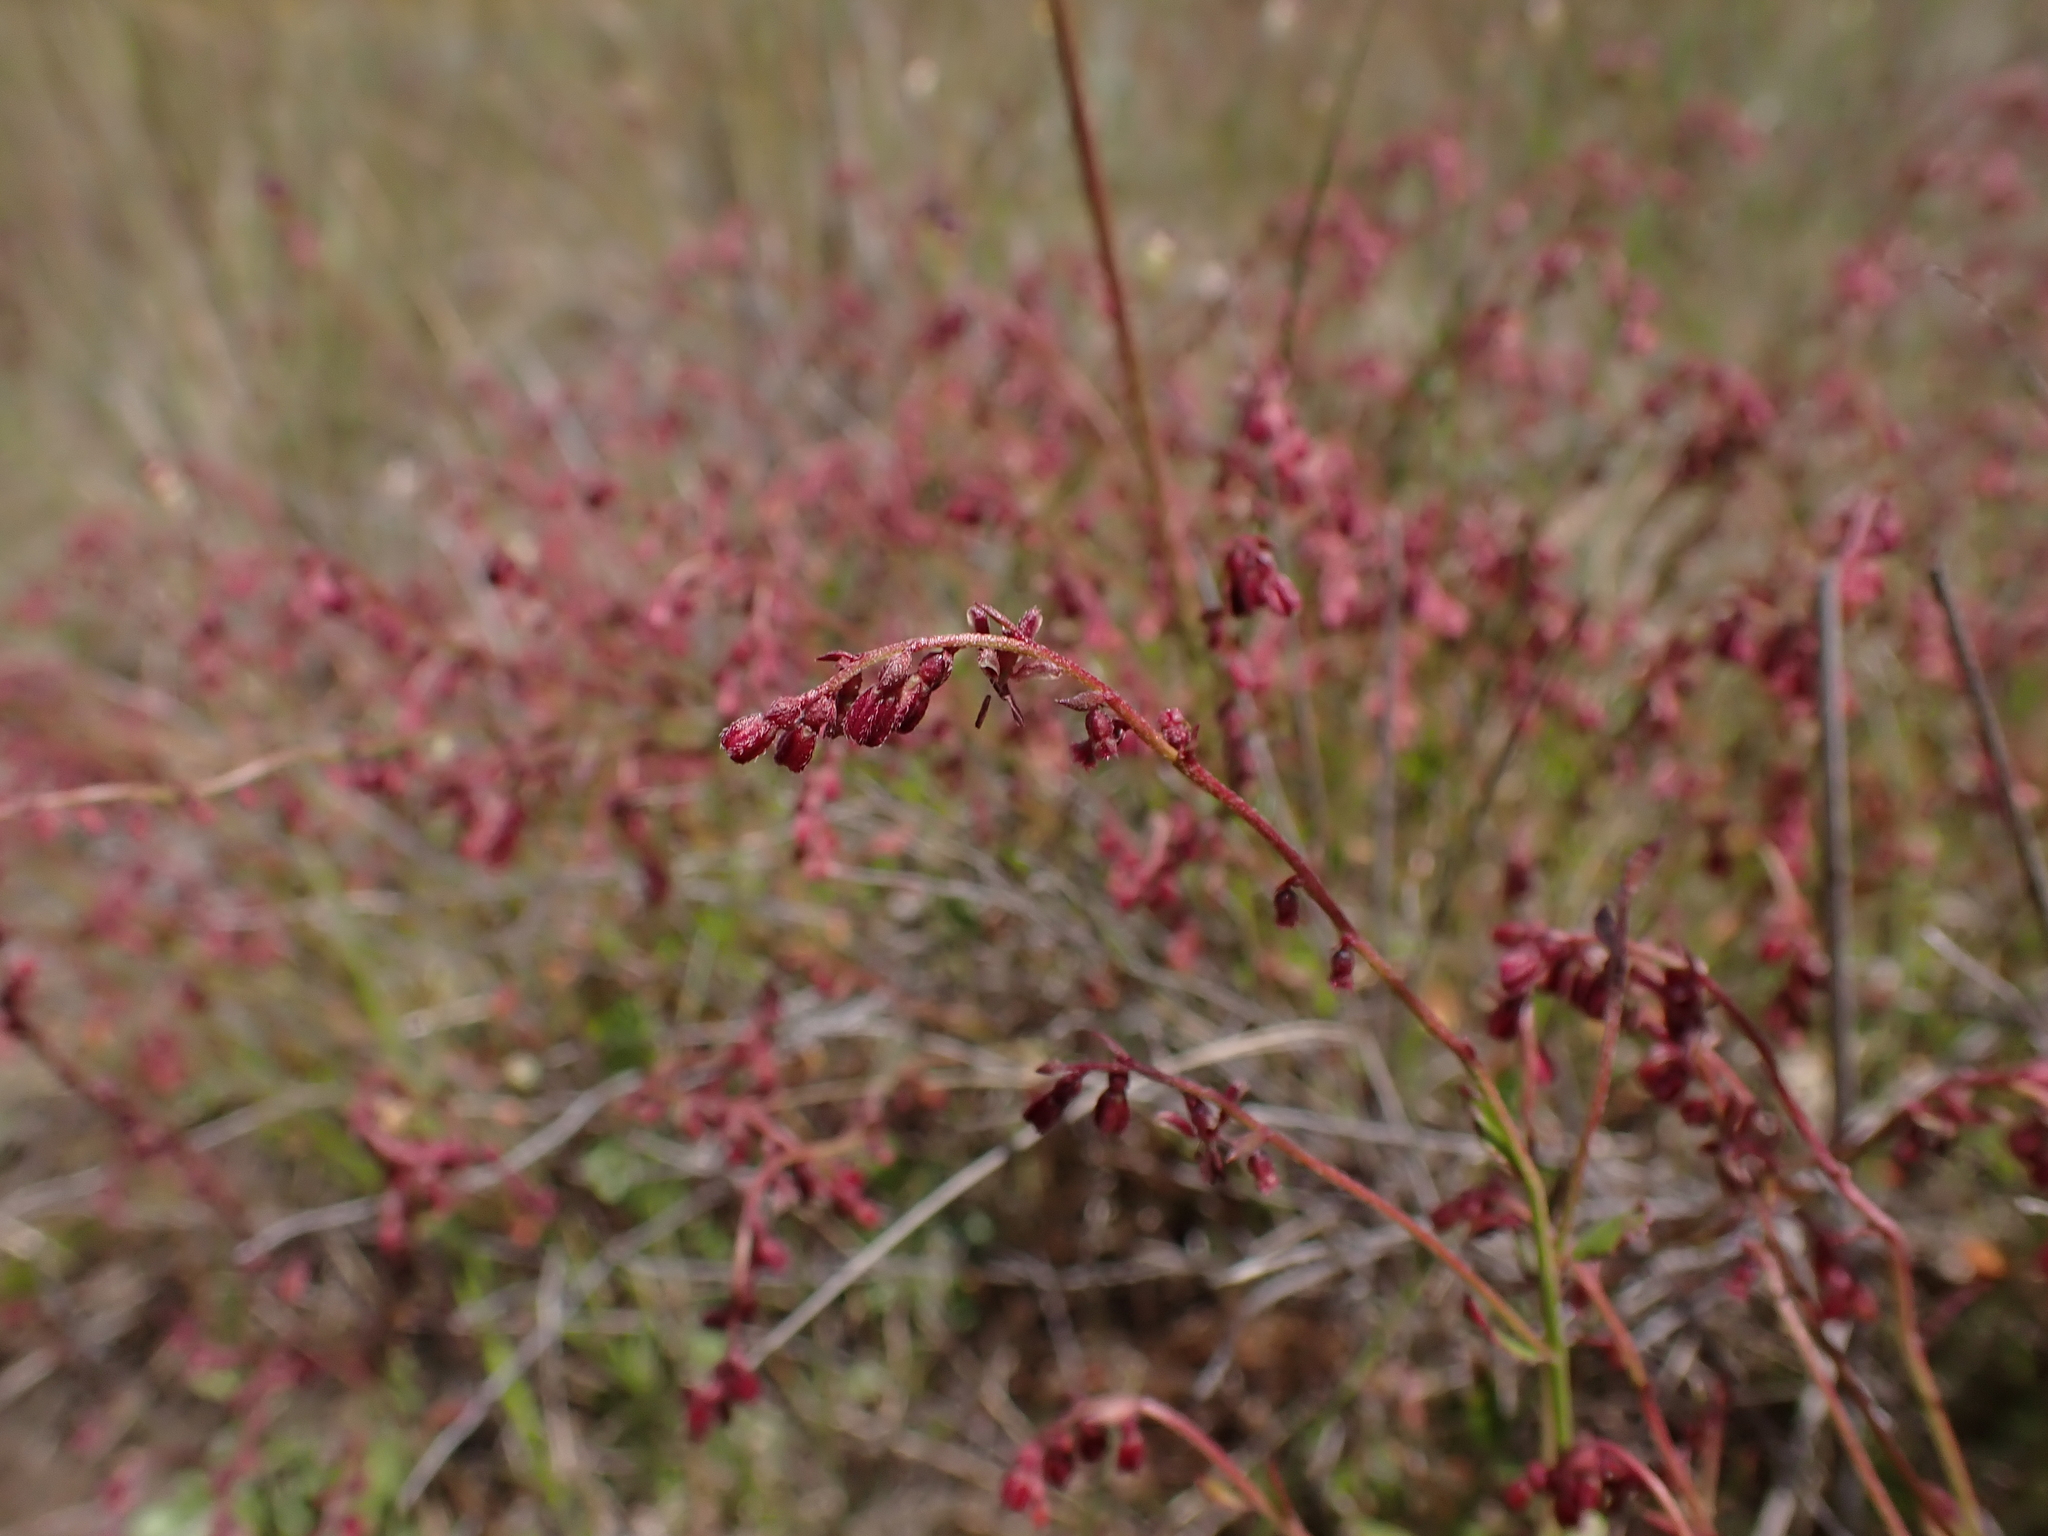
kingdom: Plantae
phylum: Tracheophyta
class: Magnoliopsida
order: Saxifragales
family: Haloragaceae
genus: Gonocarpus
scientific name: Gonocarpus tetragynus
